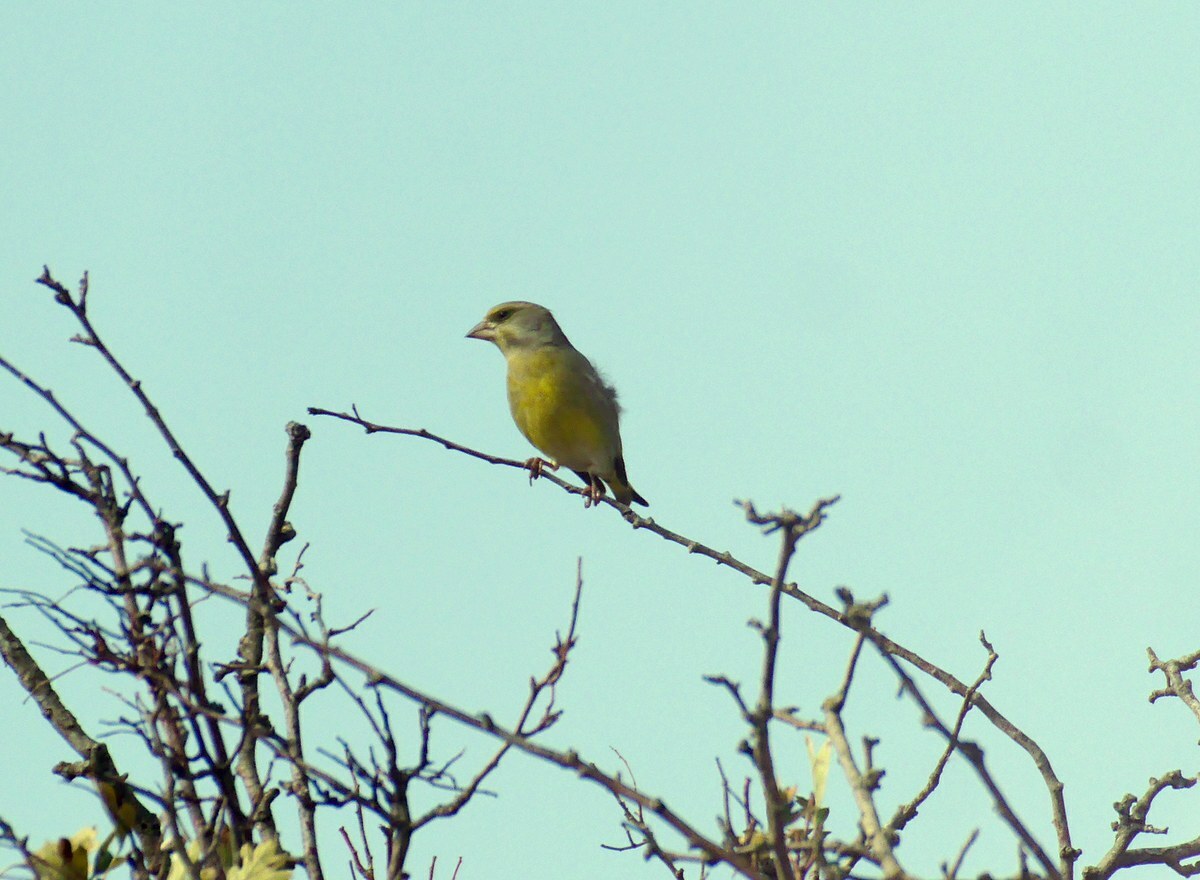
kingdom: Plantae
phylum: Tracheophyta
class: Liliopsida
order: Poales
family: Poaceae
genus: Chloris
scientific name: Chloris chloris
